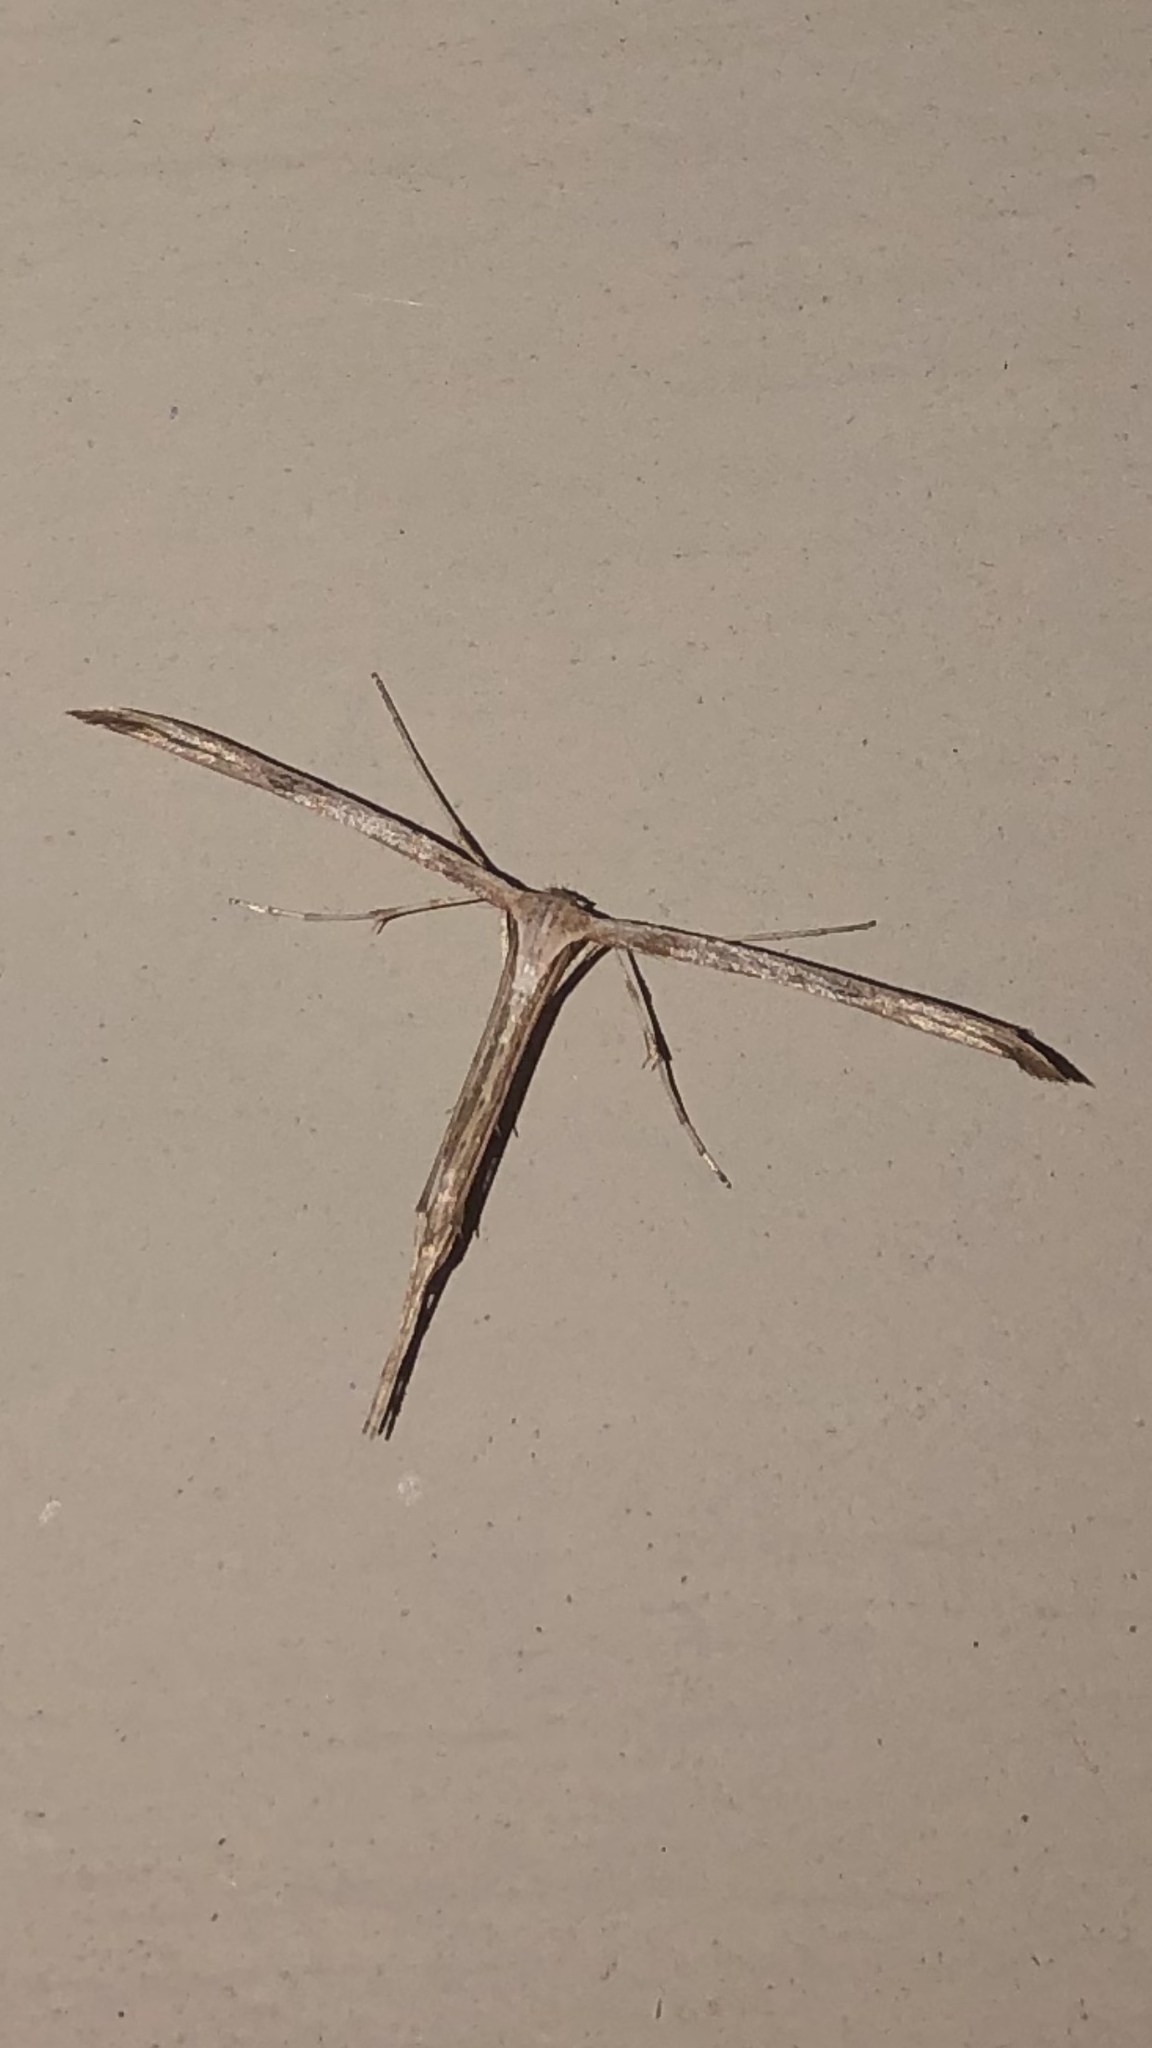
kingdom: Animalia
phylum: Arthropoda
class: Insecta
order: Lepidoptera
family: Pterophoridae
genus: Emmelina
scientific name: Emmelina monodactyla
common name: Common plume
